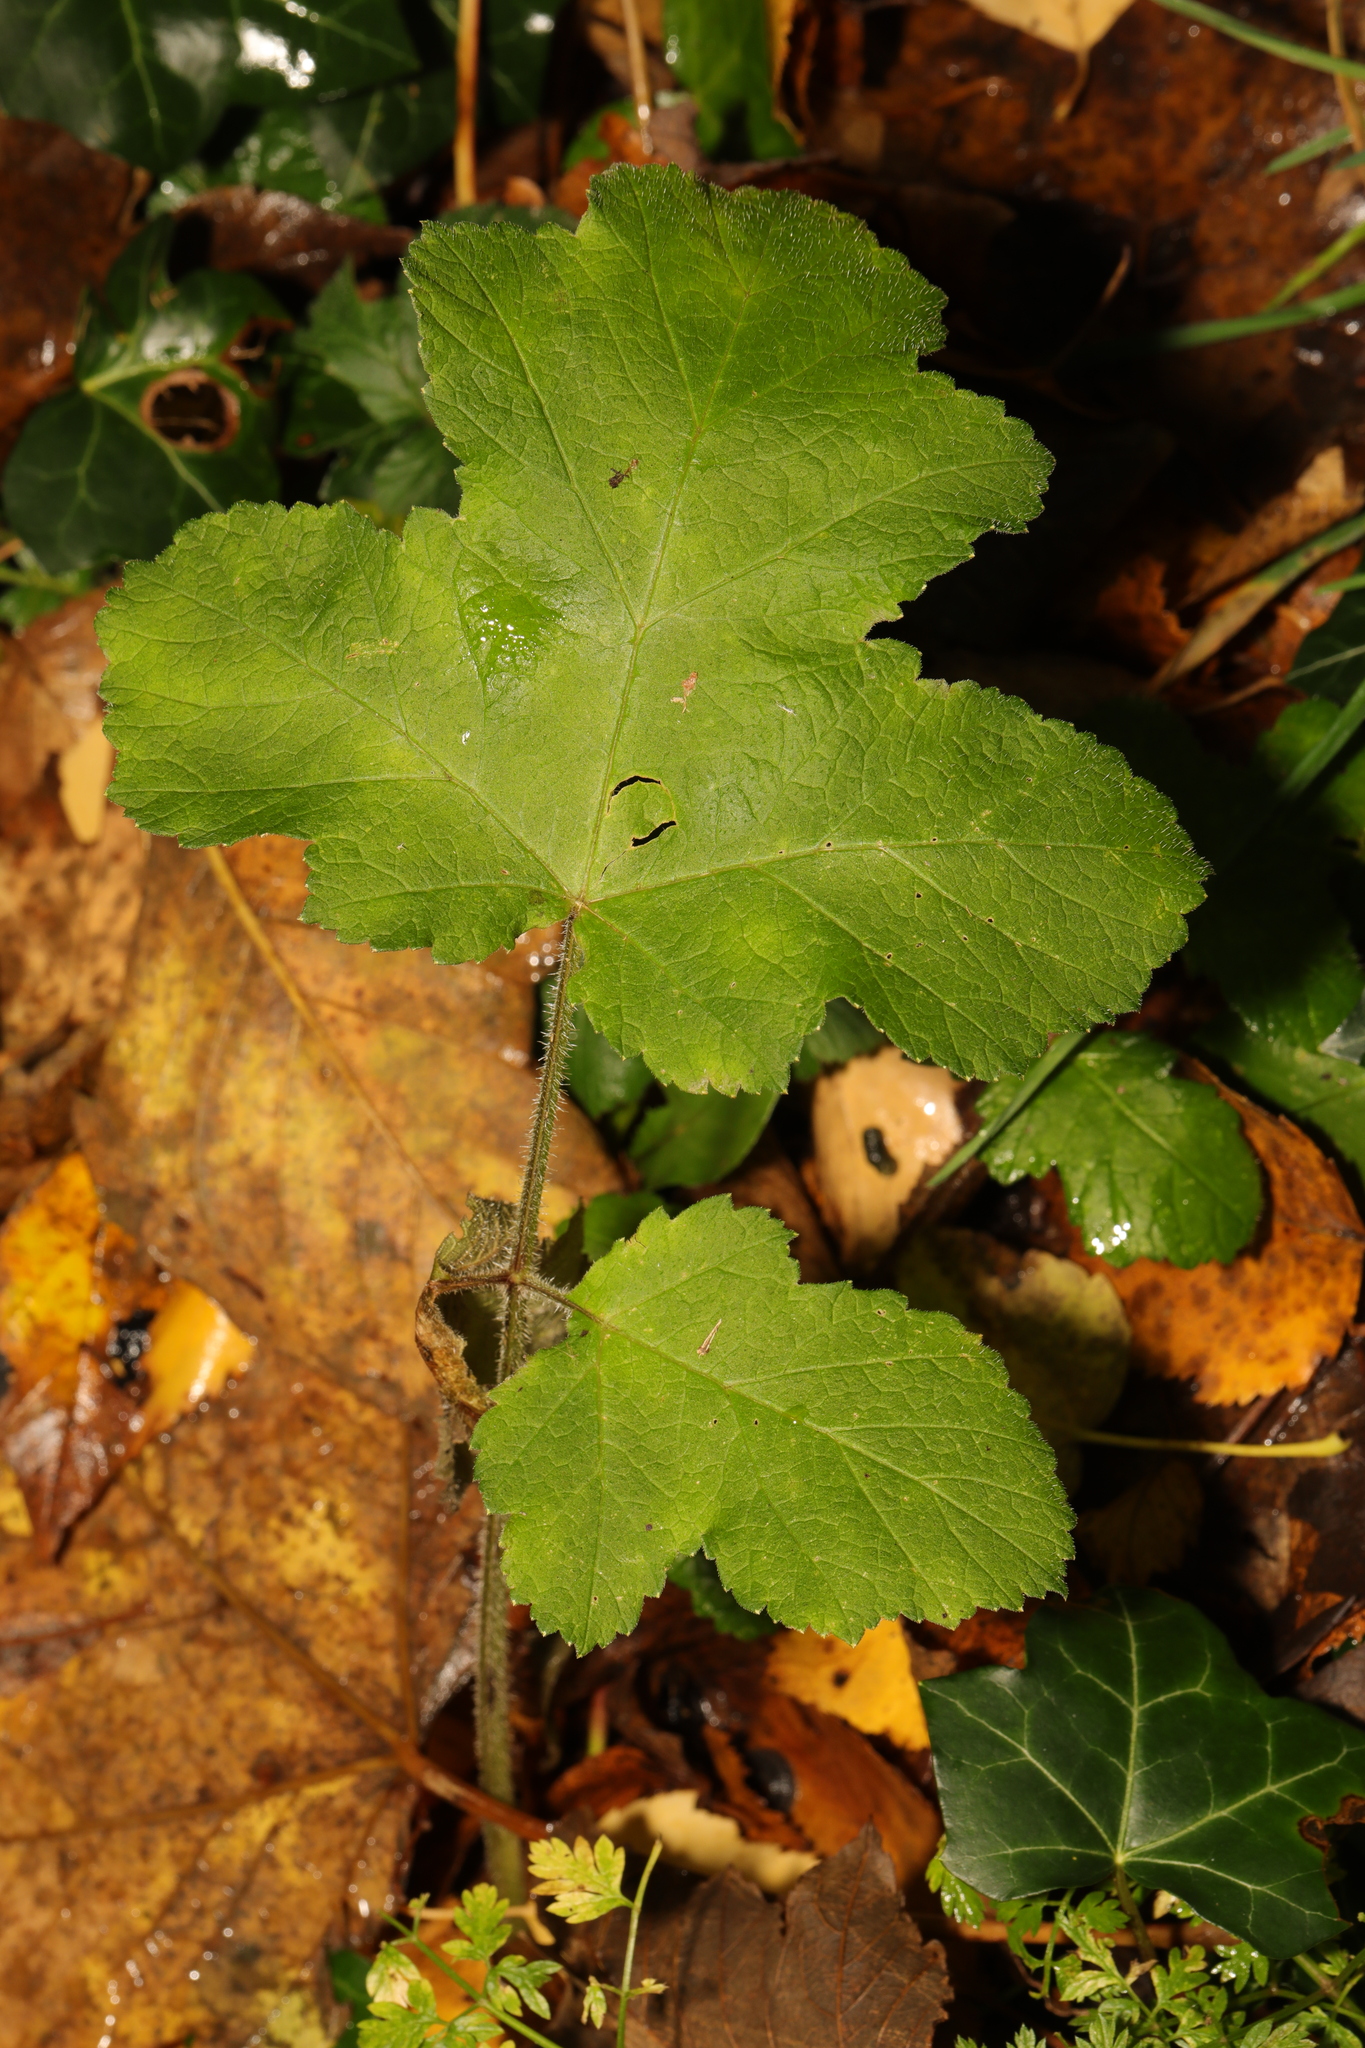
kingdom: Plantae
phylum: Tracheophyta
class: Magnoliopsida
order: Apiales
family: Apiaceae
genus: Heracleum
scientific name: Heracleum sphondylium
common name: Hogweed
